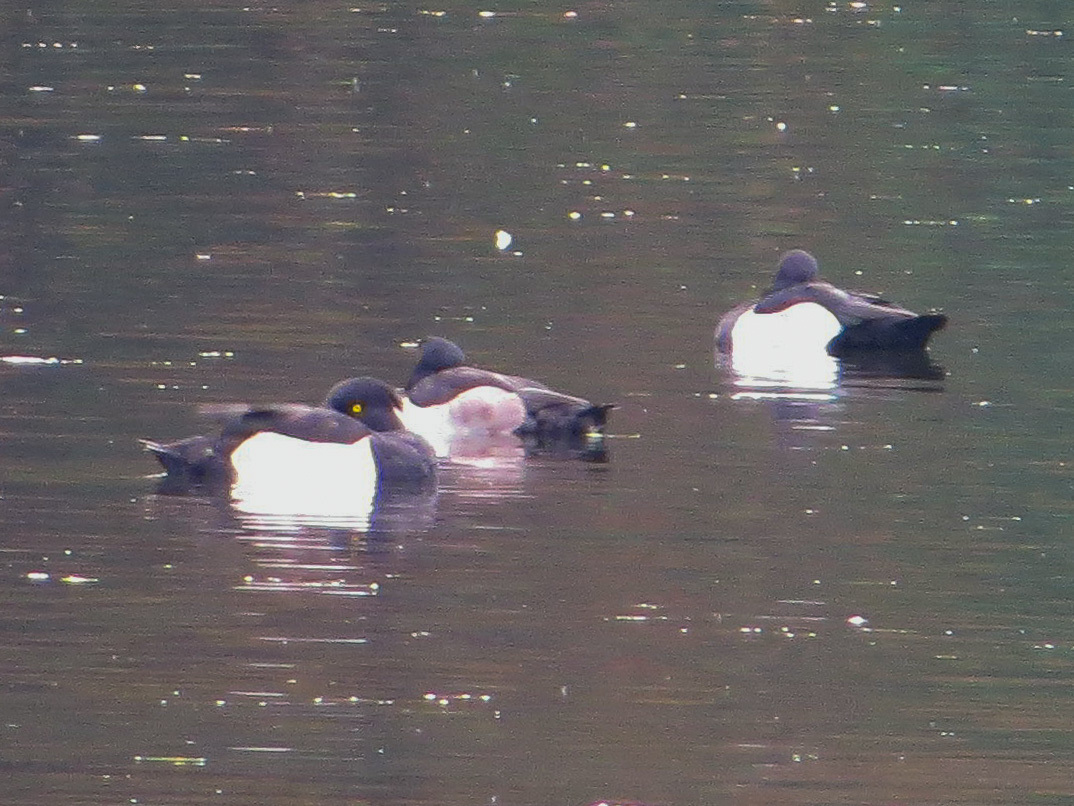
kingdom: Animalia
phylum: Chordata
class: Aves
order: Anseriformes
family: Anatidae
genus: Aythya
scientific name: Aythya fuligula
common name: Tufted duck
